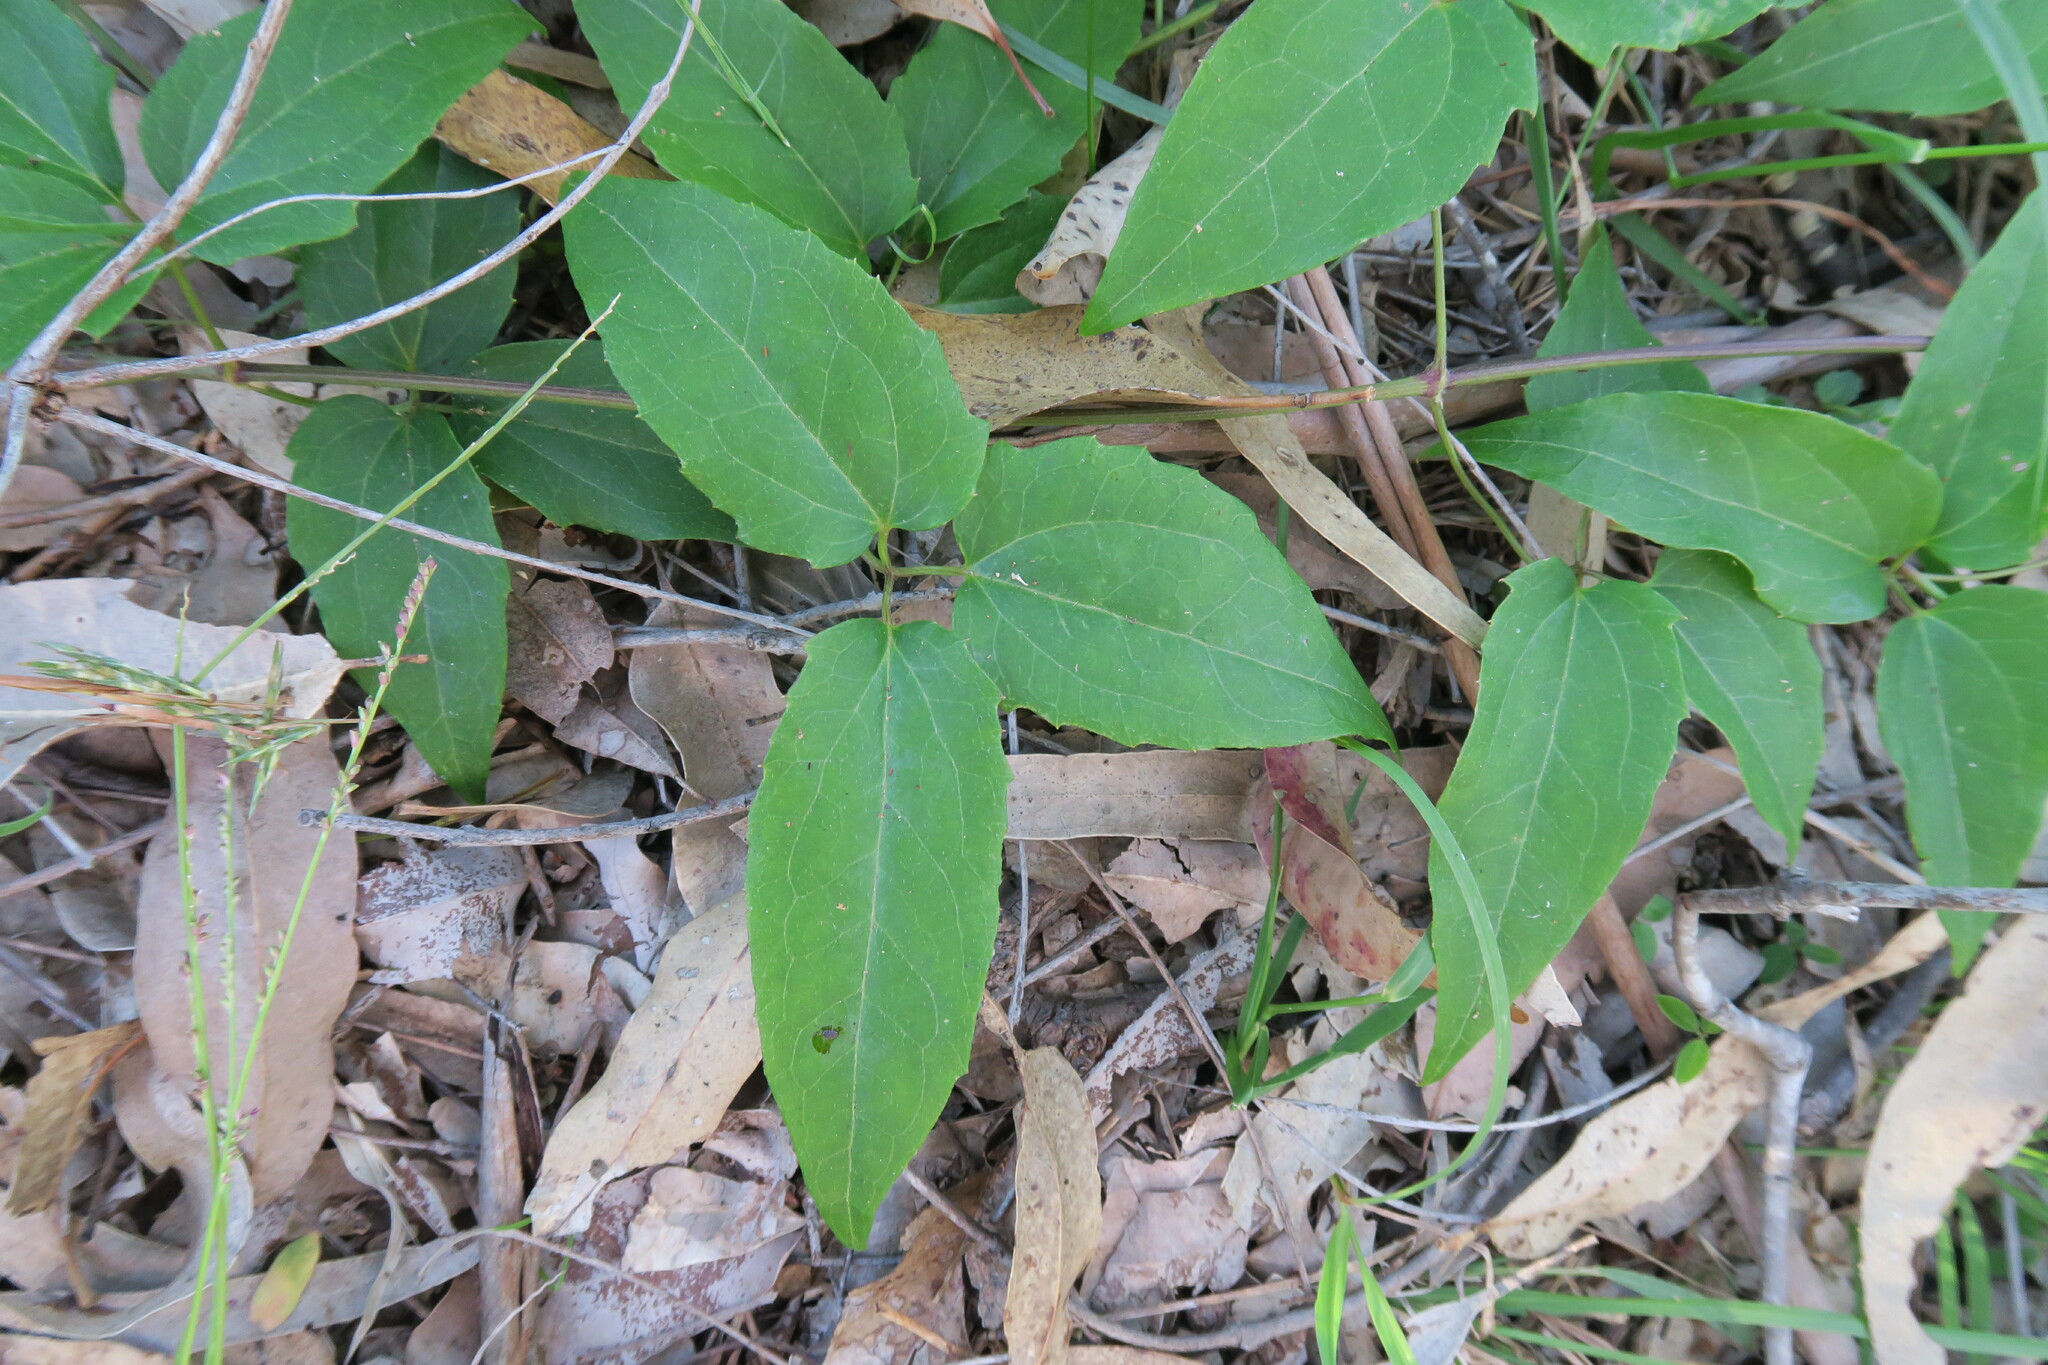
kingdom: Plantae
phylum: Tracheophyta
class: Magnoliopsida
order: Ranunculales
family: Ranunculaceae
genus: Clematis
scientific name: Clematis glycinoides
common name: Forest clematis
